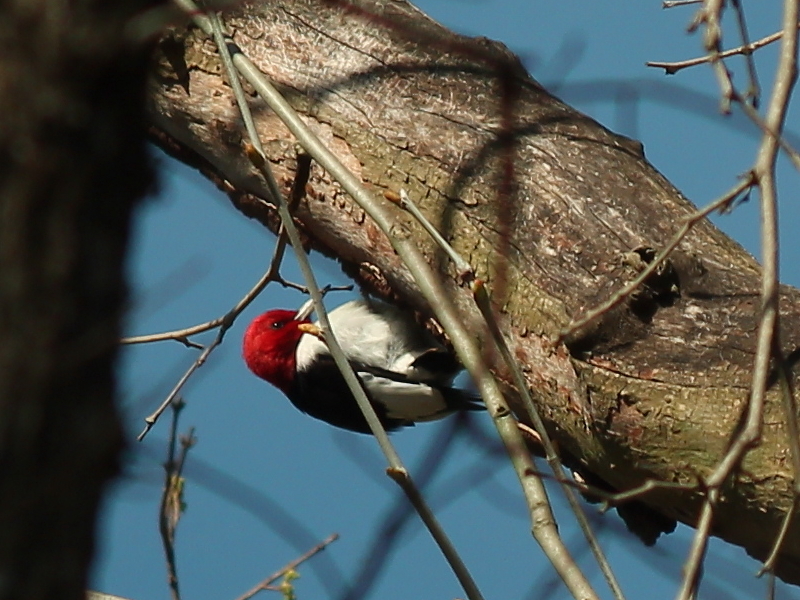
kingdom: Animalia
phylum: Chordata
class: Aves
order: Piciformes
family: Picidae
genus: Melanerpes
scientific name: Melanerpes erythrocephalus
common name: Red-headed woodpecker
